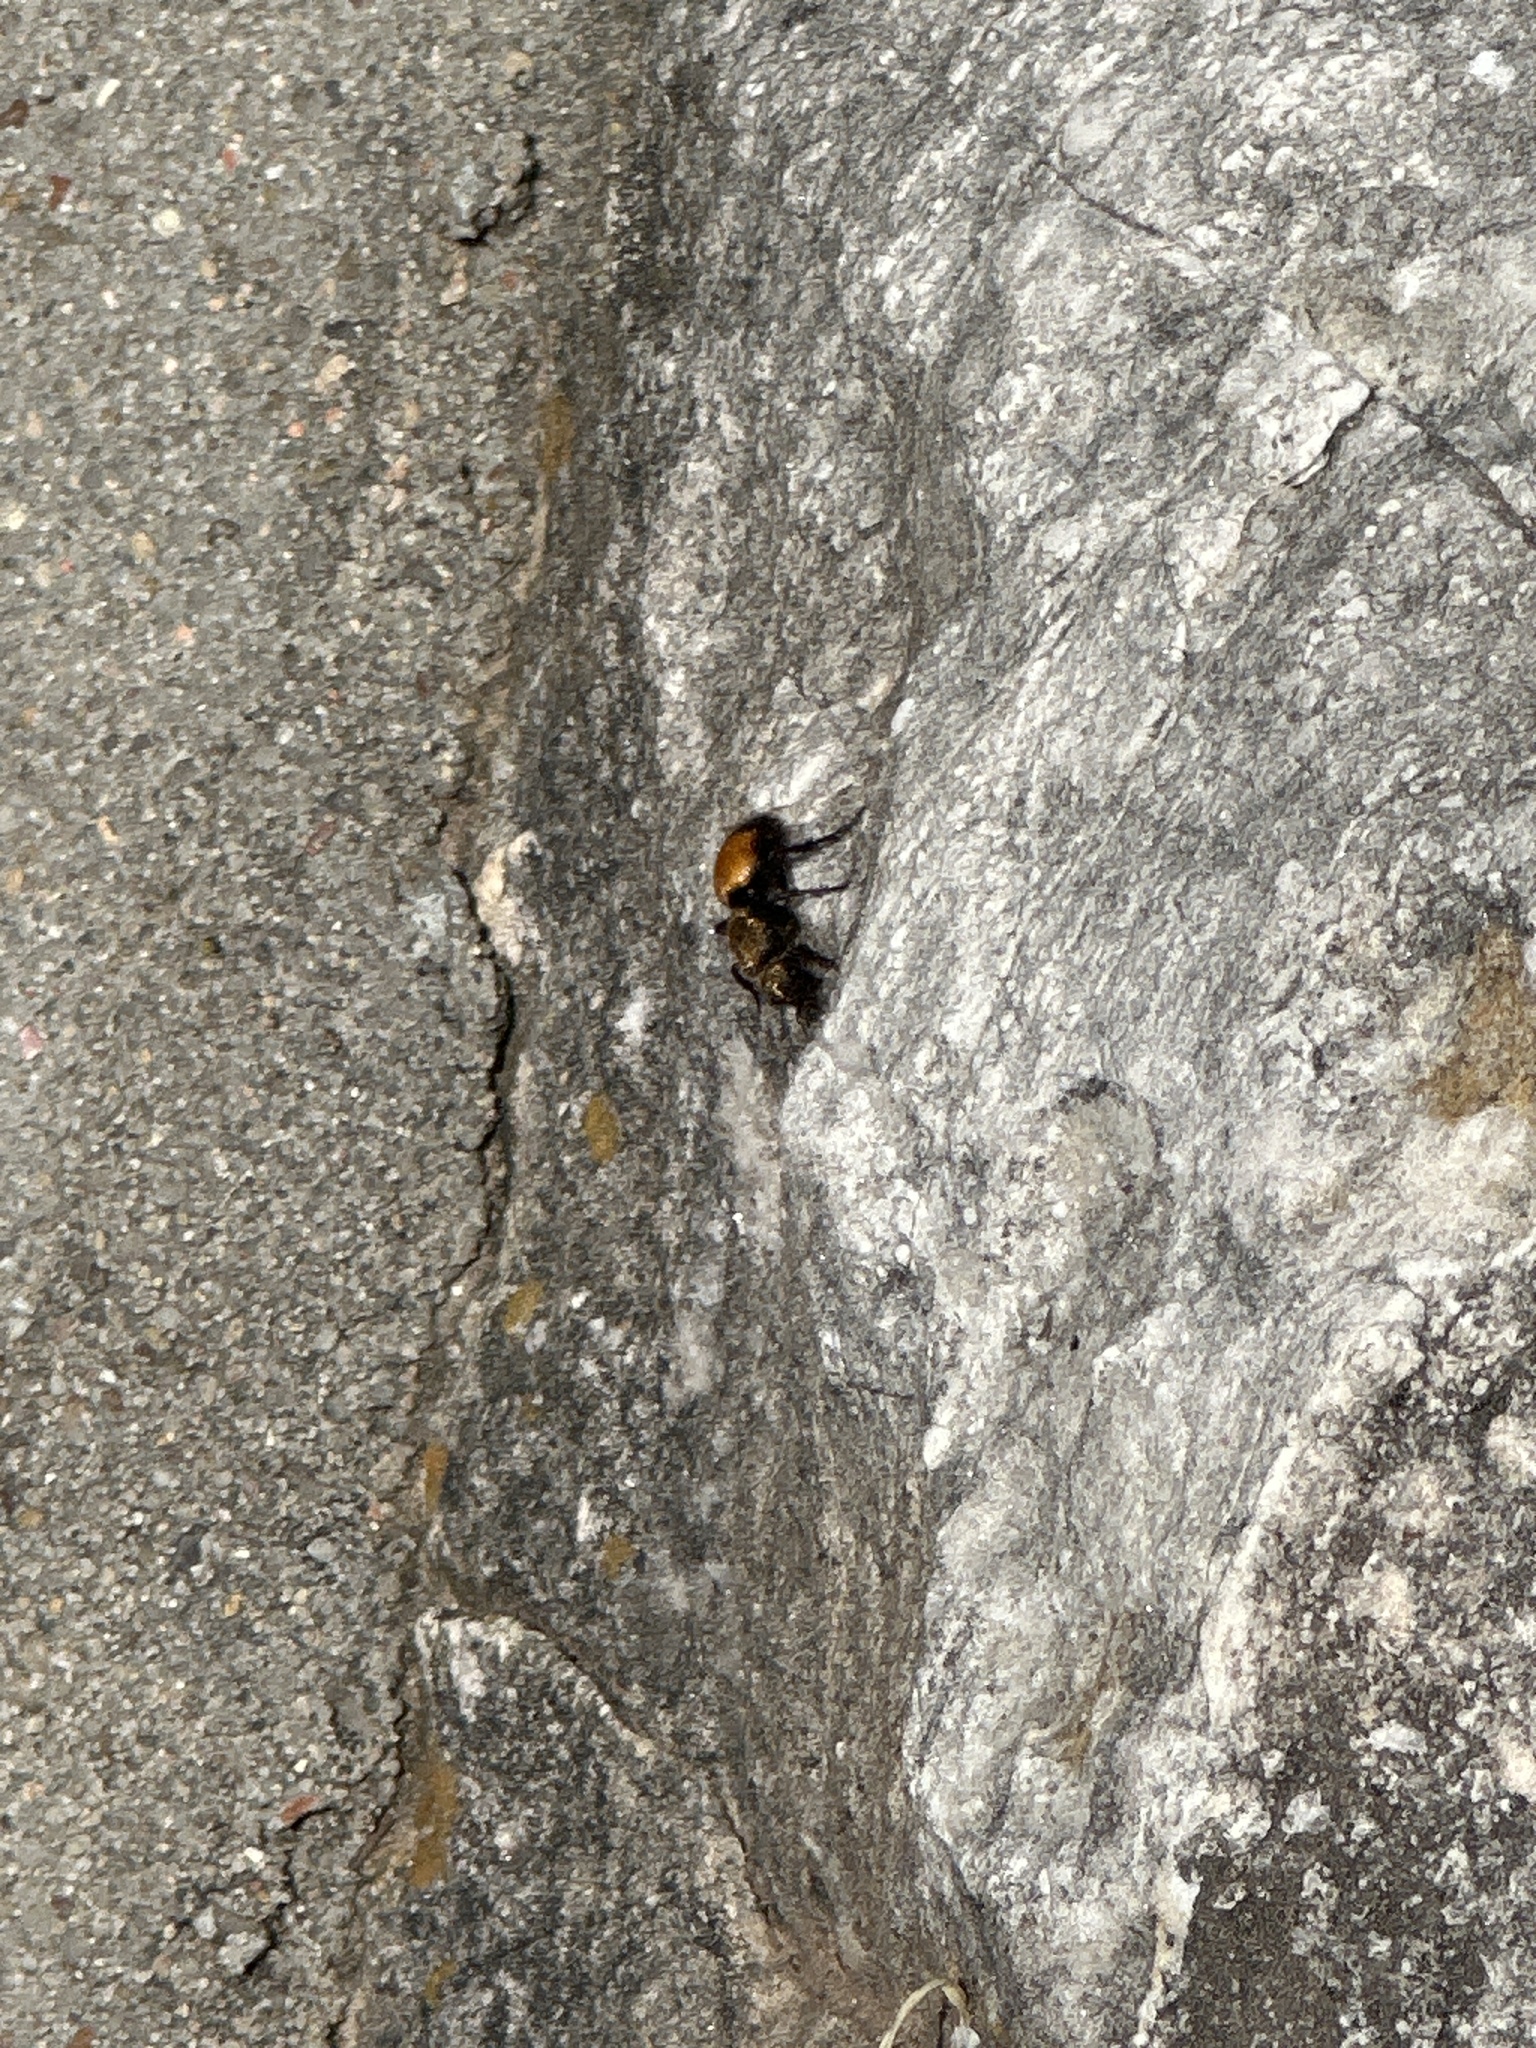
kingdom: Animalia
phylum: Arthropoda
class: Insecta
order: Hymenoptera
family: Mutillidae
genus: Dasymutilla
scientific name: Dasymutilla
